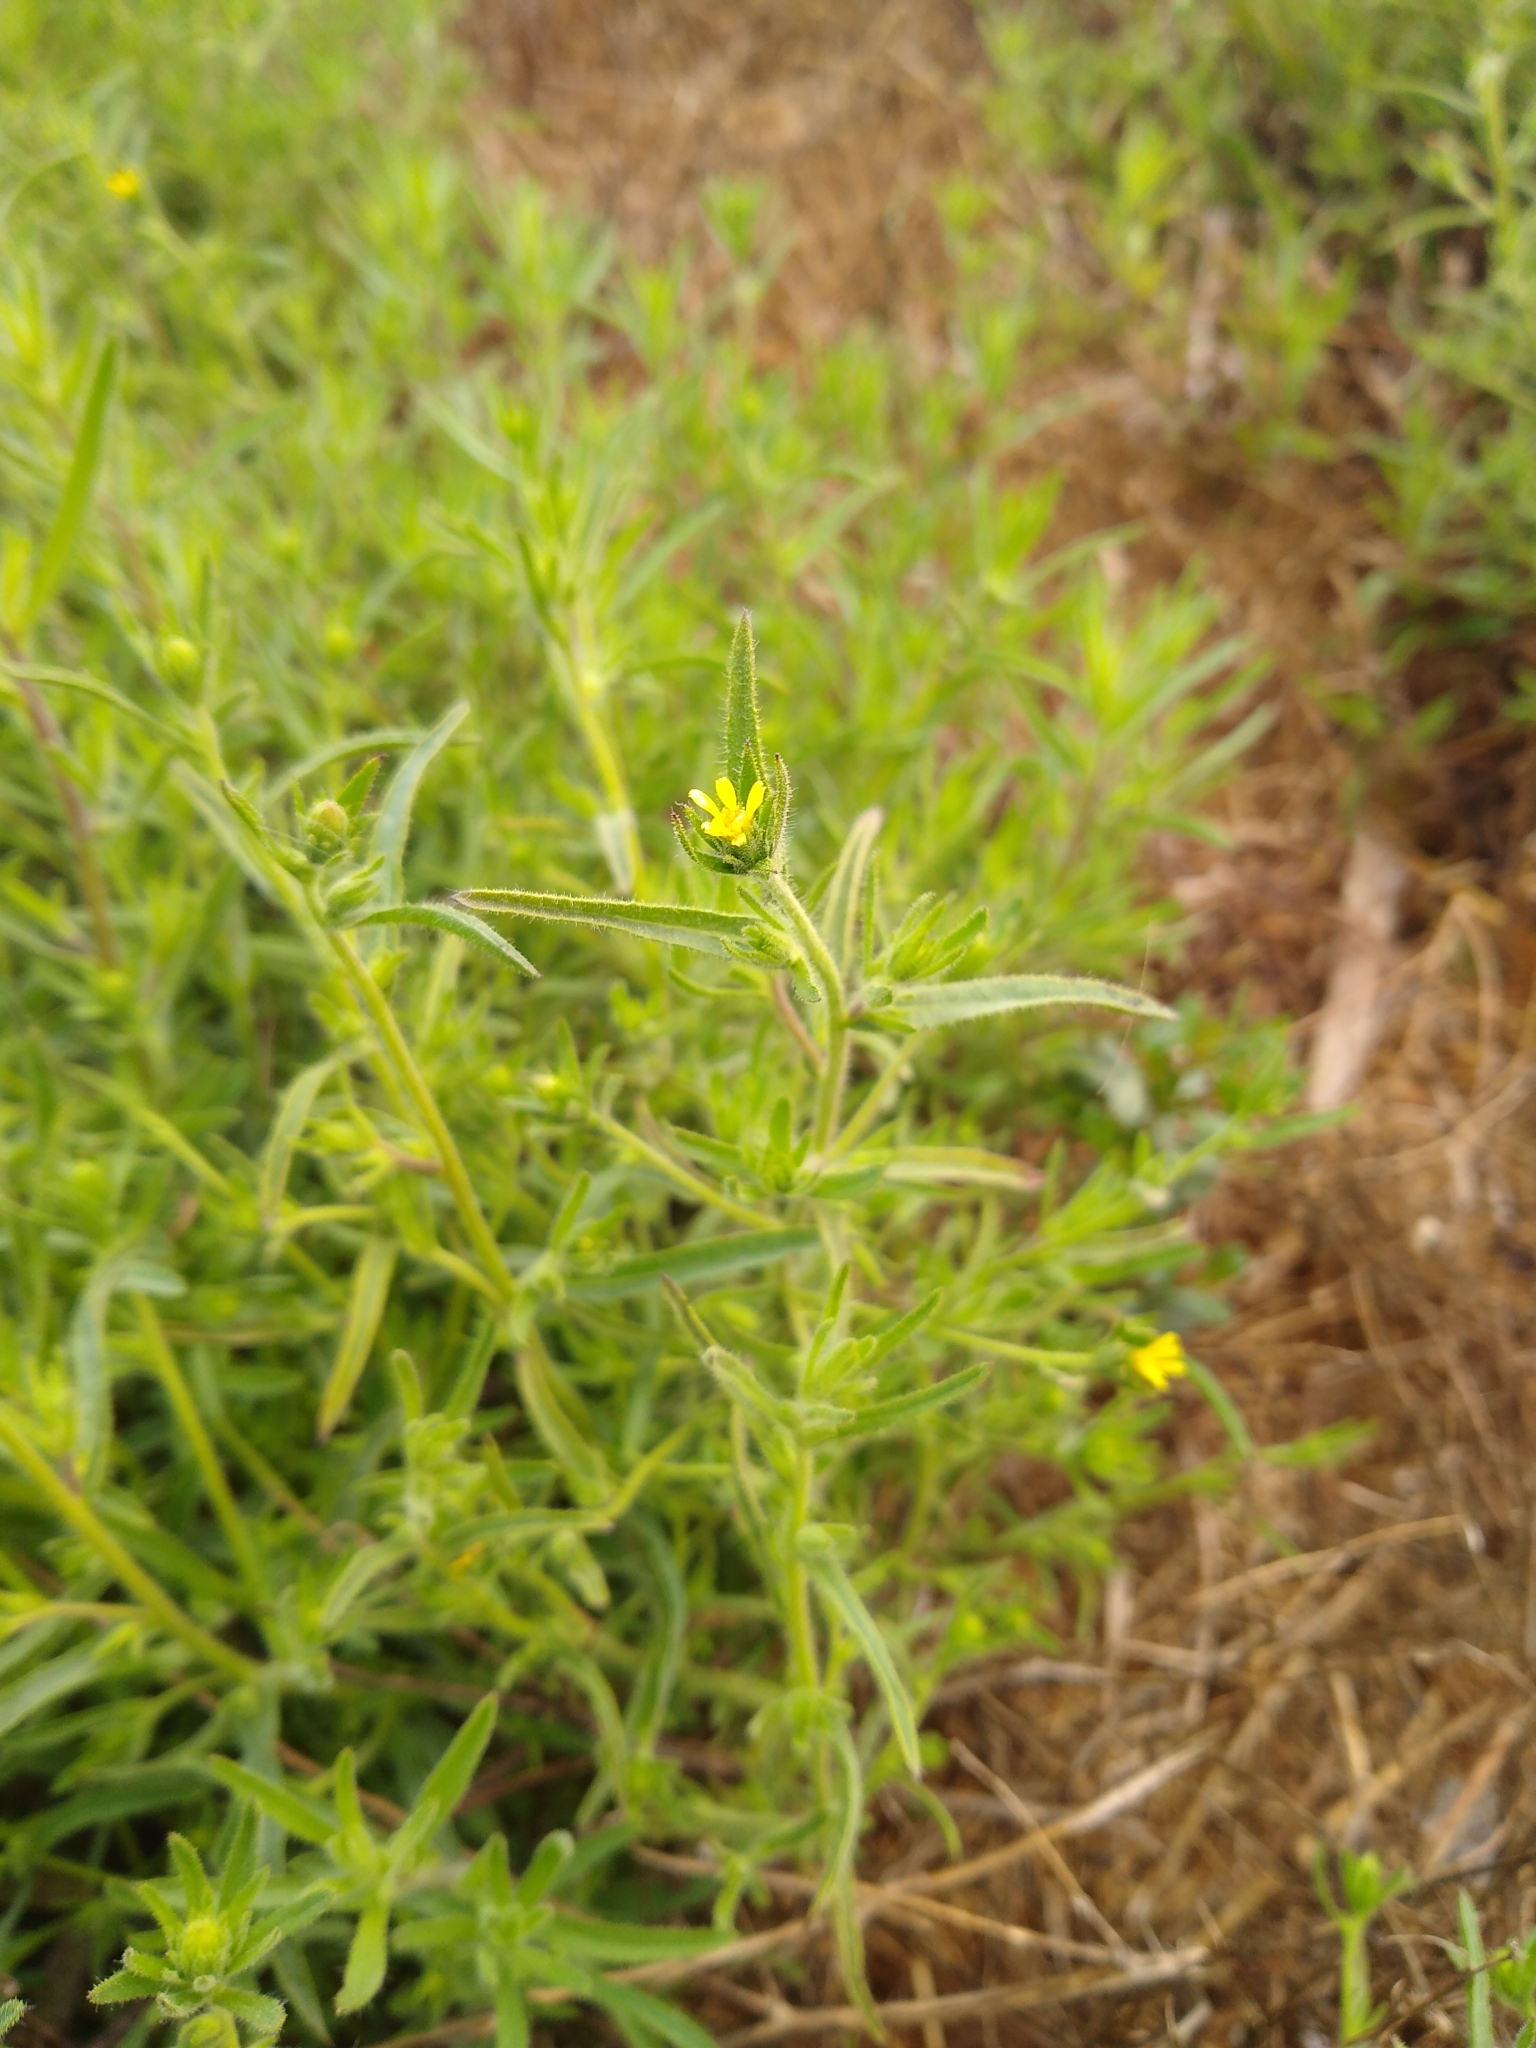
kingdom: Plantae
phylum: Tracheophyta
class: Magnoliopsida
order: Asterales
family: Asteraceae
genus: Dittrichia
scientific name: Dittrichia graveolens
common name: Stinking fleabane
